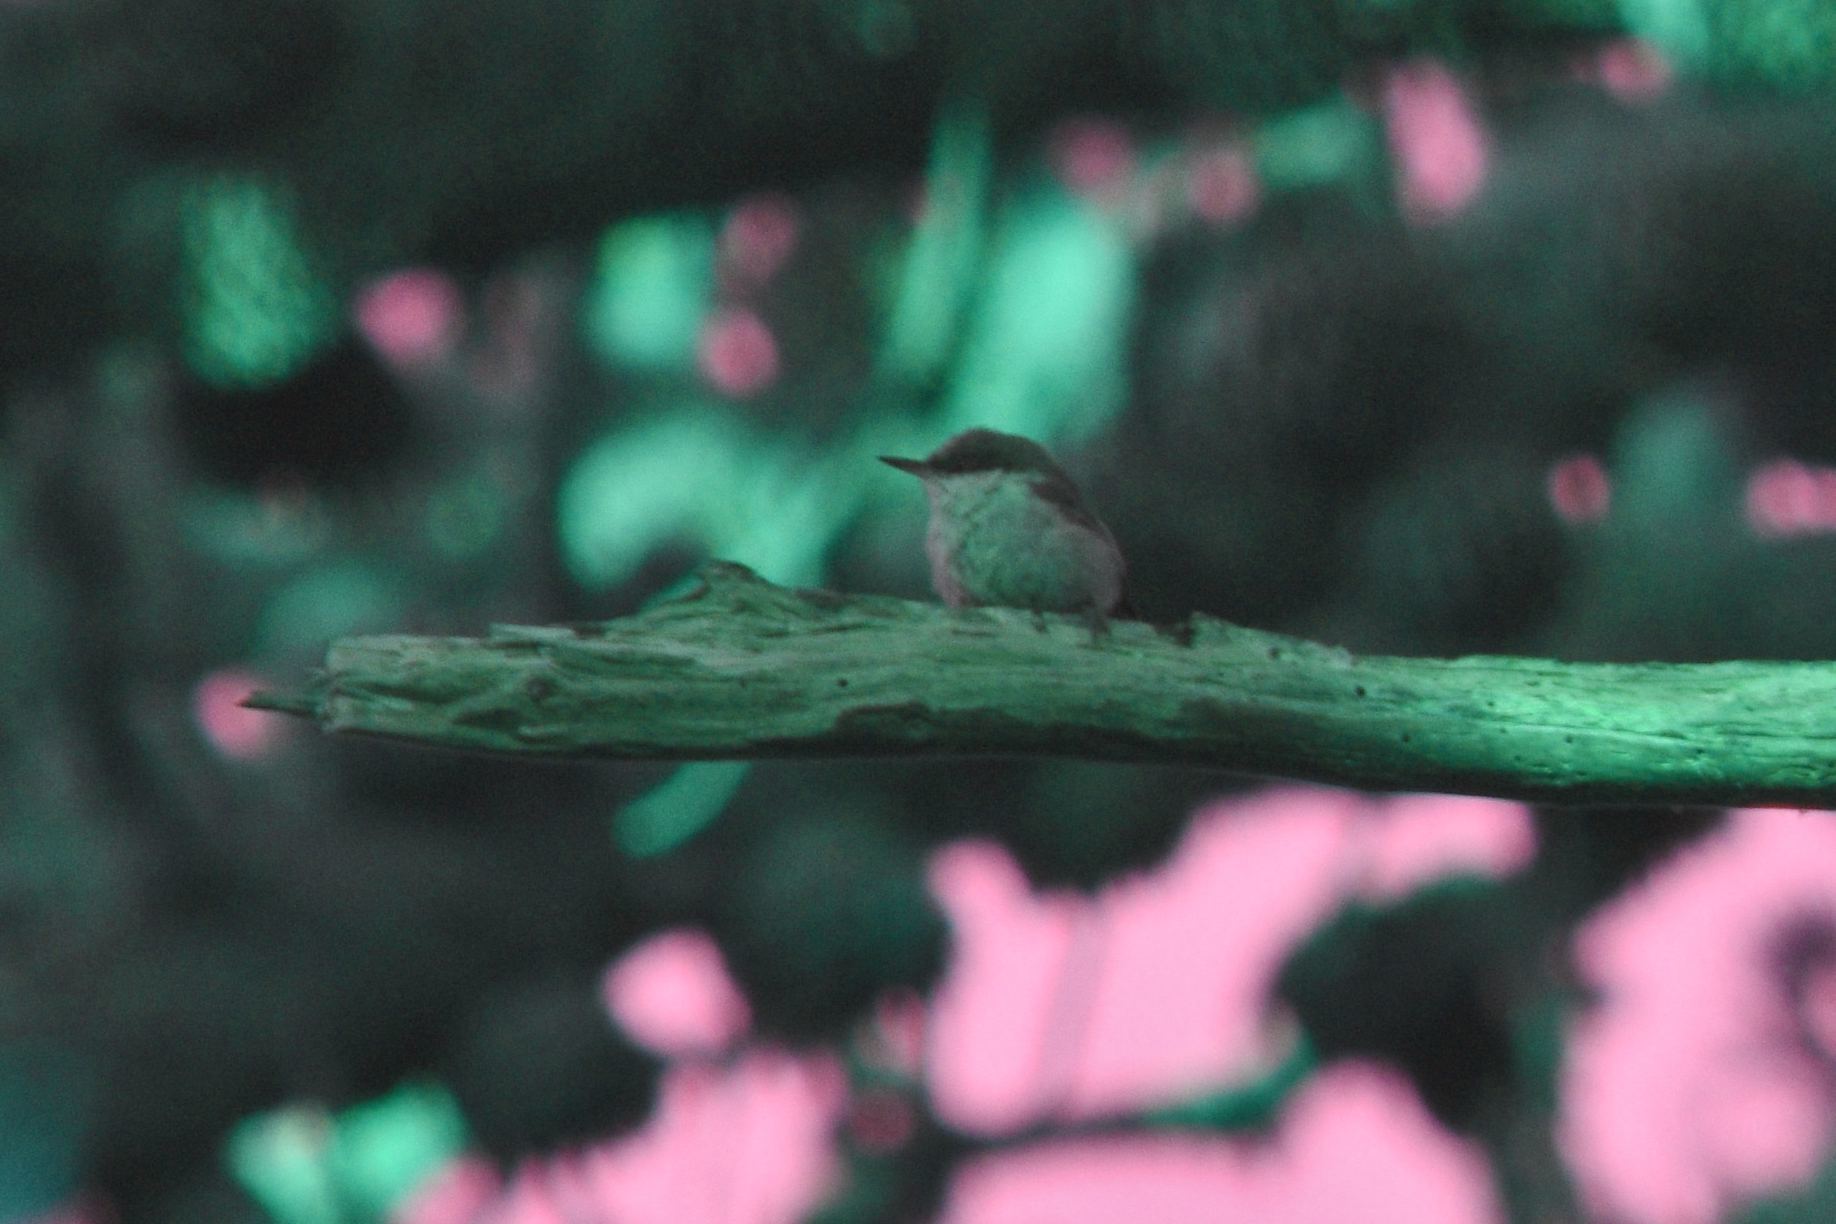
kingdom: Animalia
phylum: Chordata
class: Aves
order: Passeriformes
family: Sittidae
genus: Sitta
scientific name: Sitta pygmaea
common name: Pygmy nuthatch
